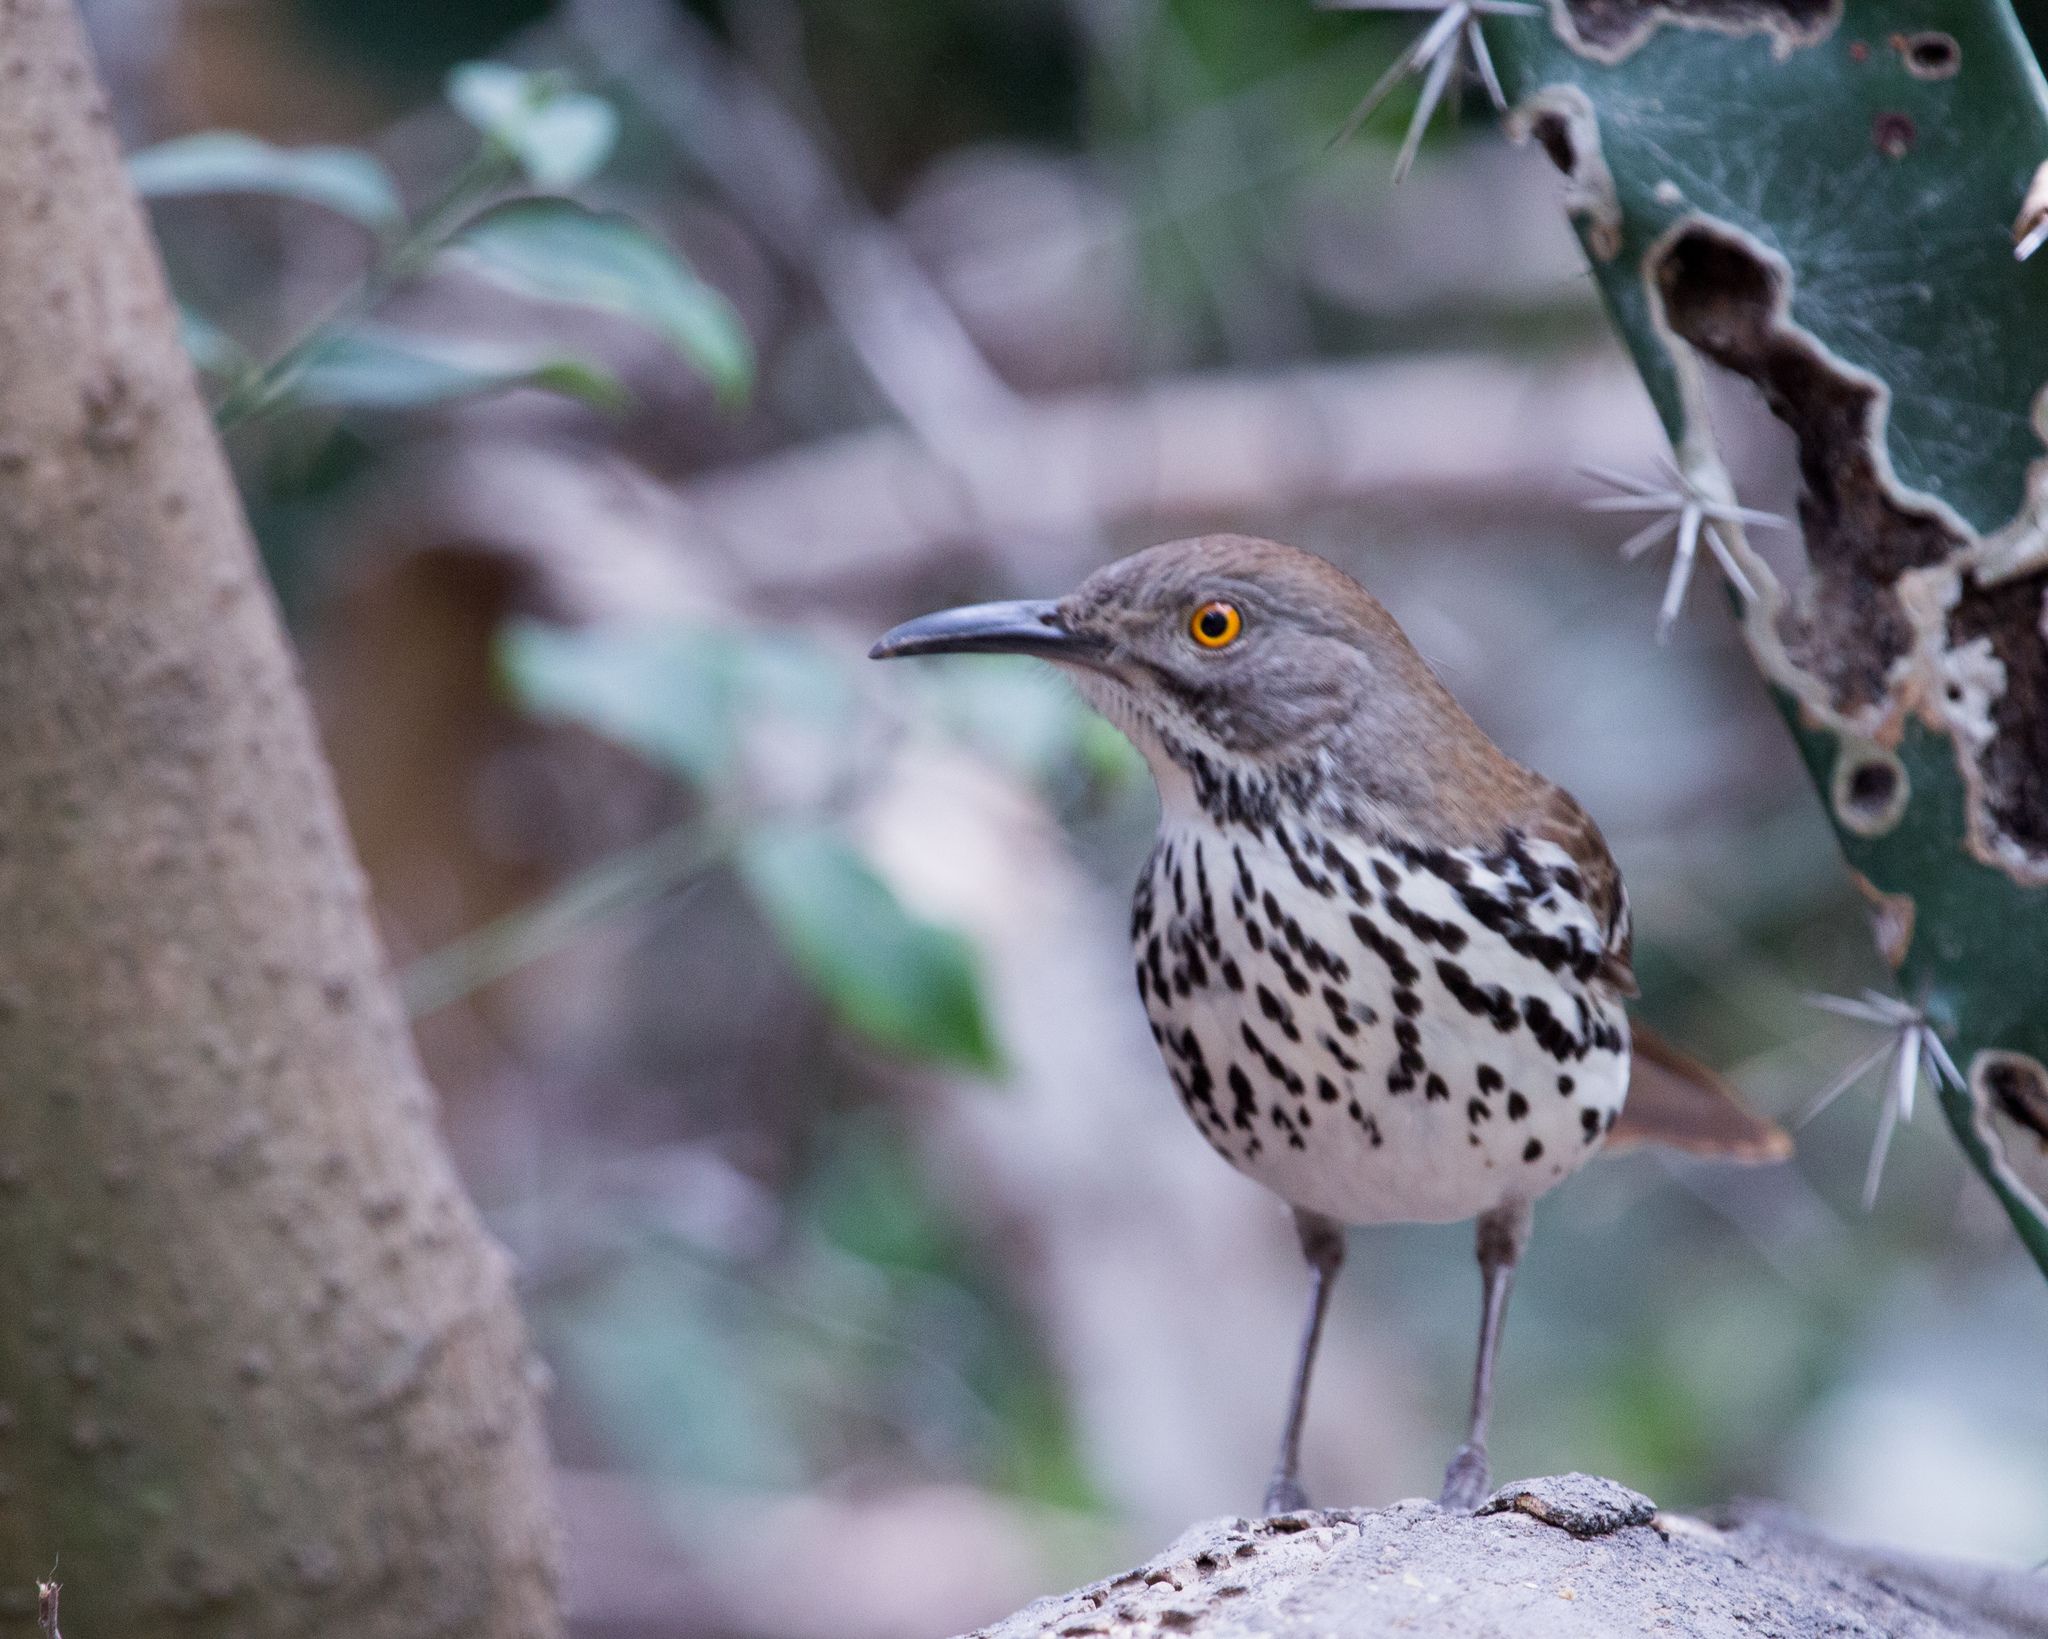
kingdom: Animalia
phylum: Chordata
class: Aves
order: Passeriformes
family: Mimidae
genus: Toxostoma
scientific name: Toxostoma longirostre
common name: Long-billed thrasher
